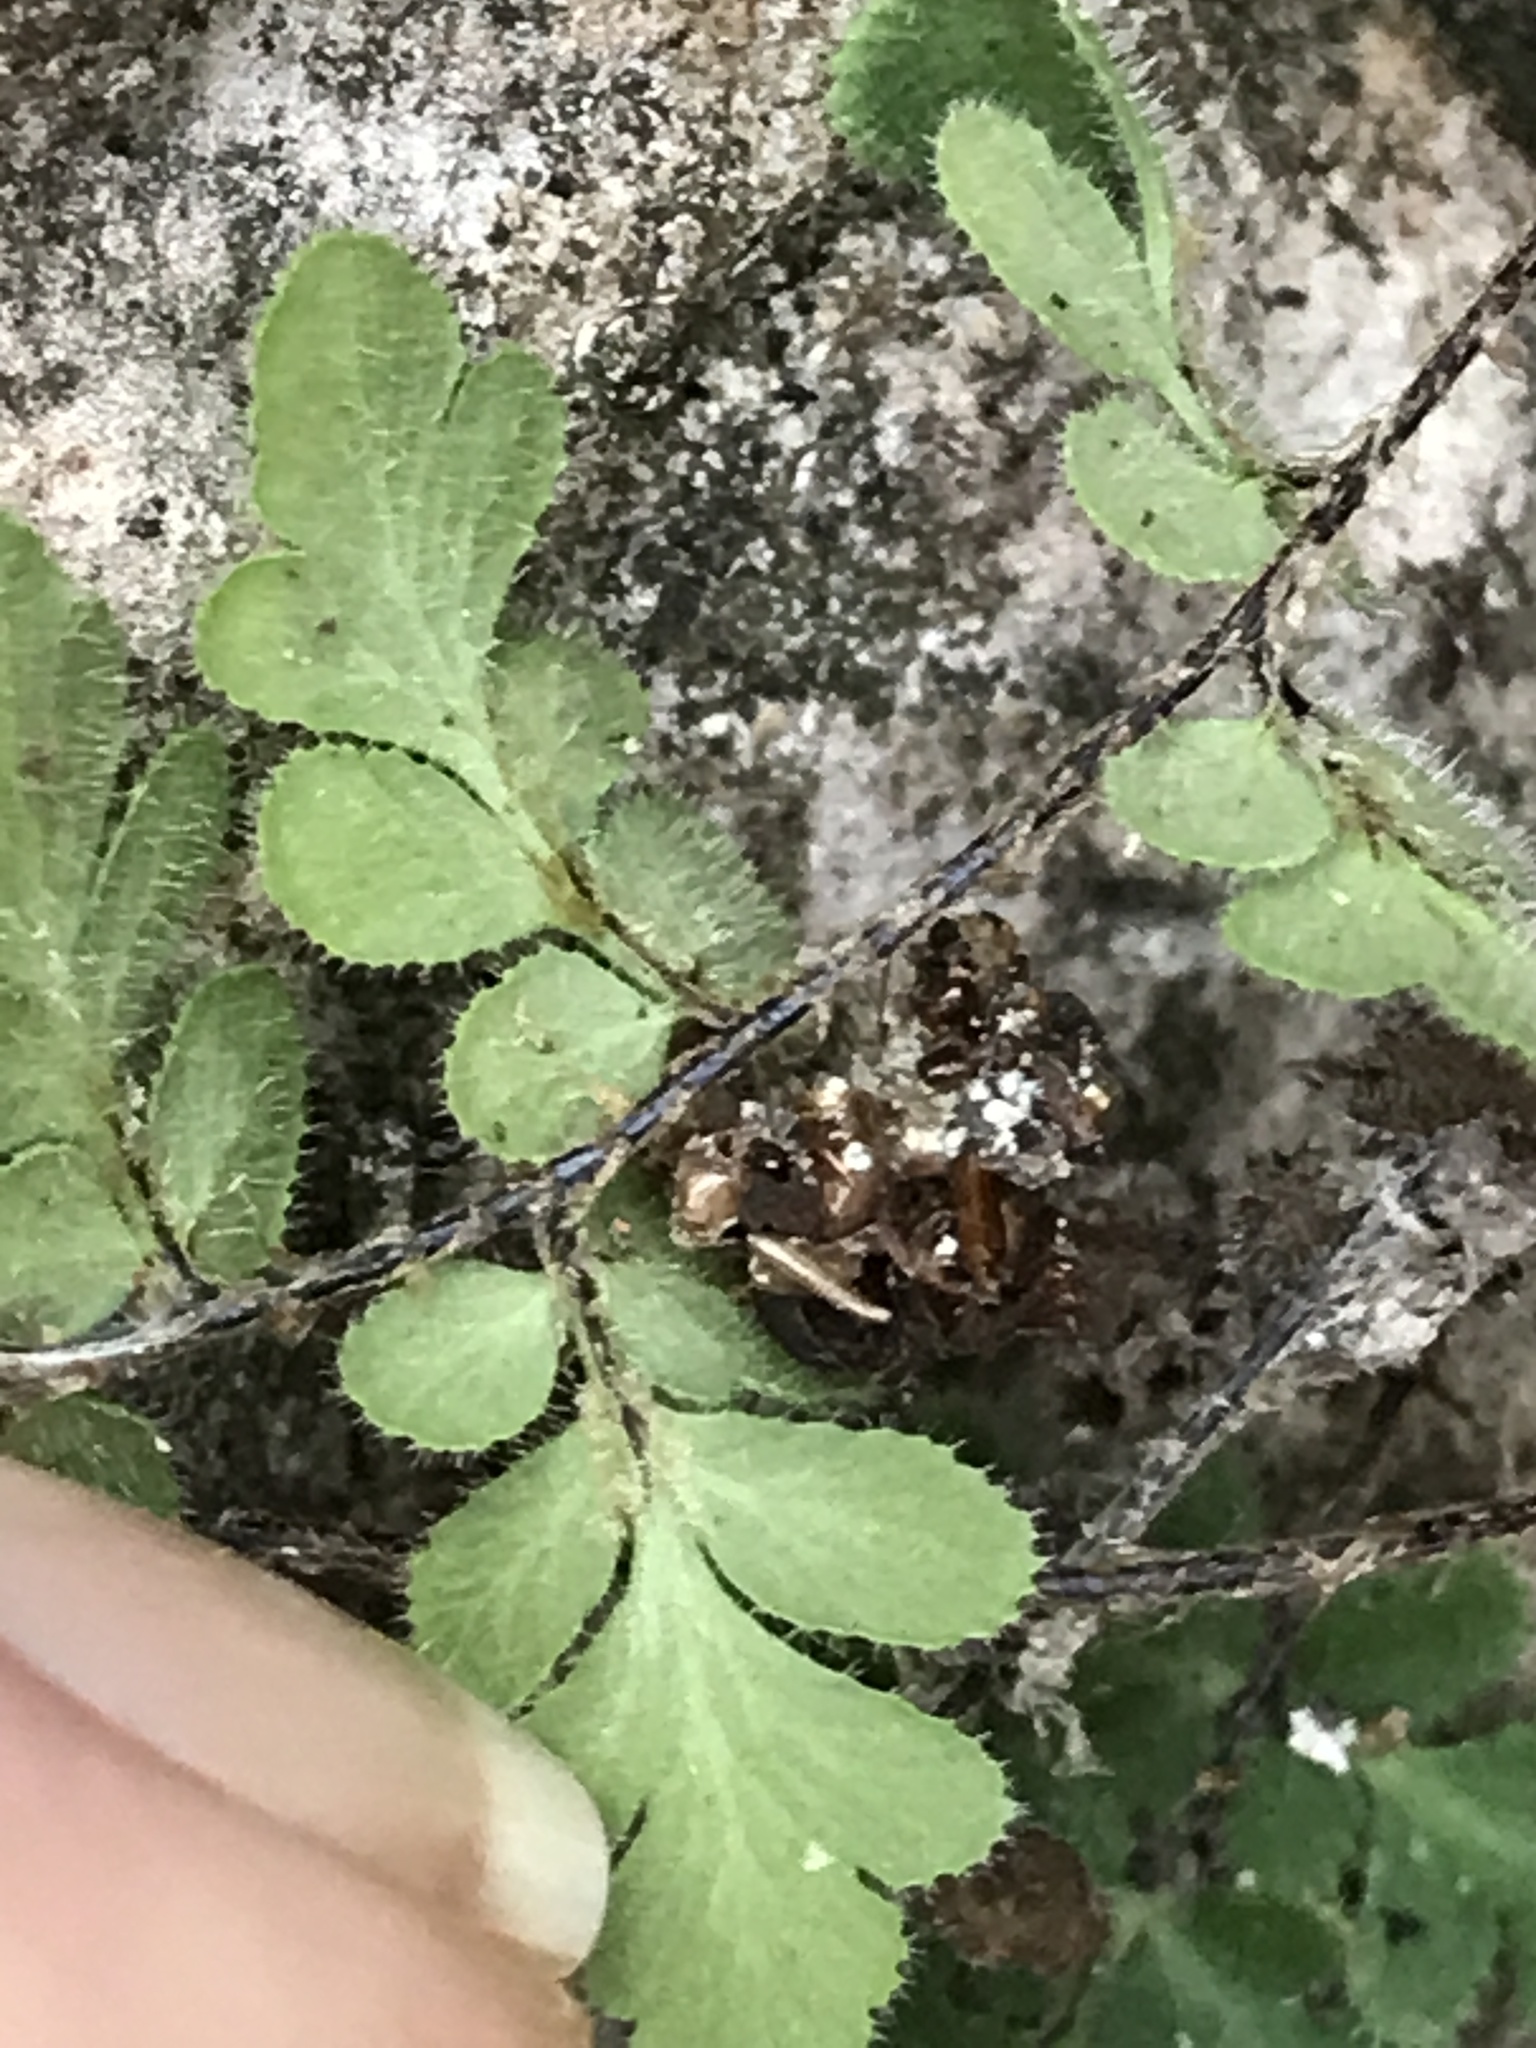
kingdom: Plantae
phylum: Tracheophyta
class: Polypodiopsida
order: Polypodiales
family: Pteridaceae
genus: Myriopteris
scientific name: Myriopteris scabra
